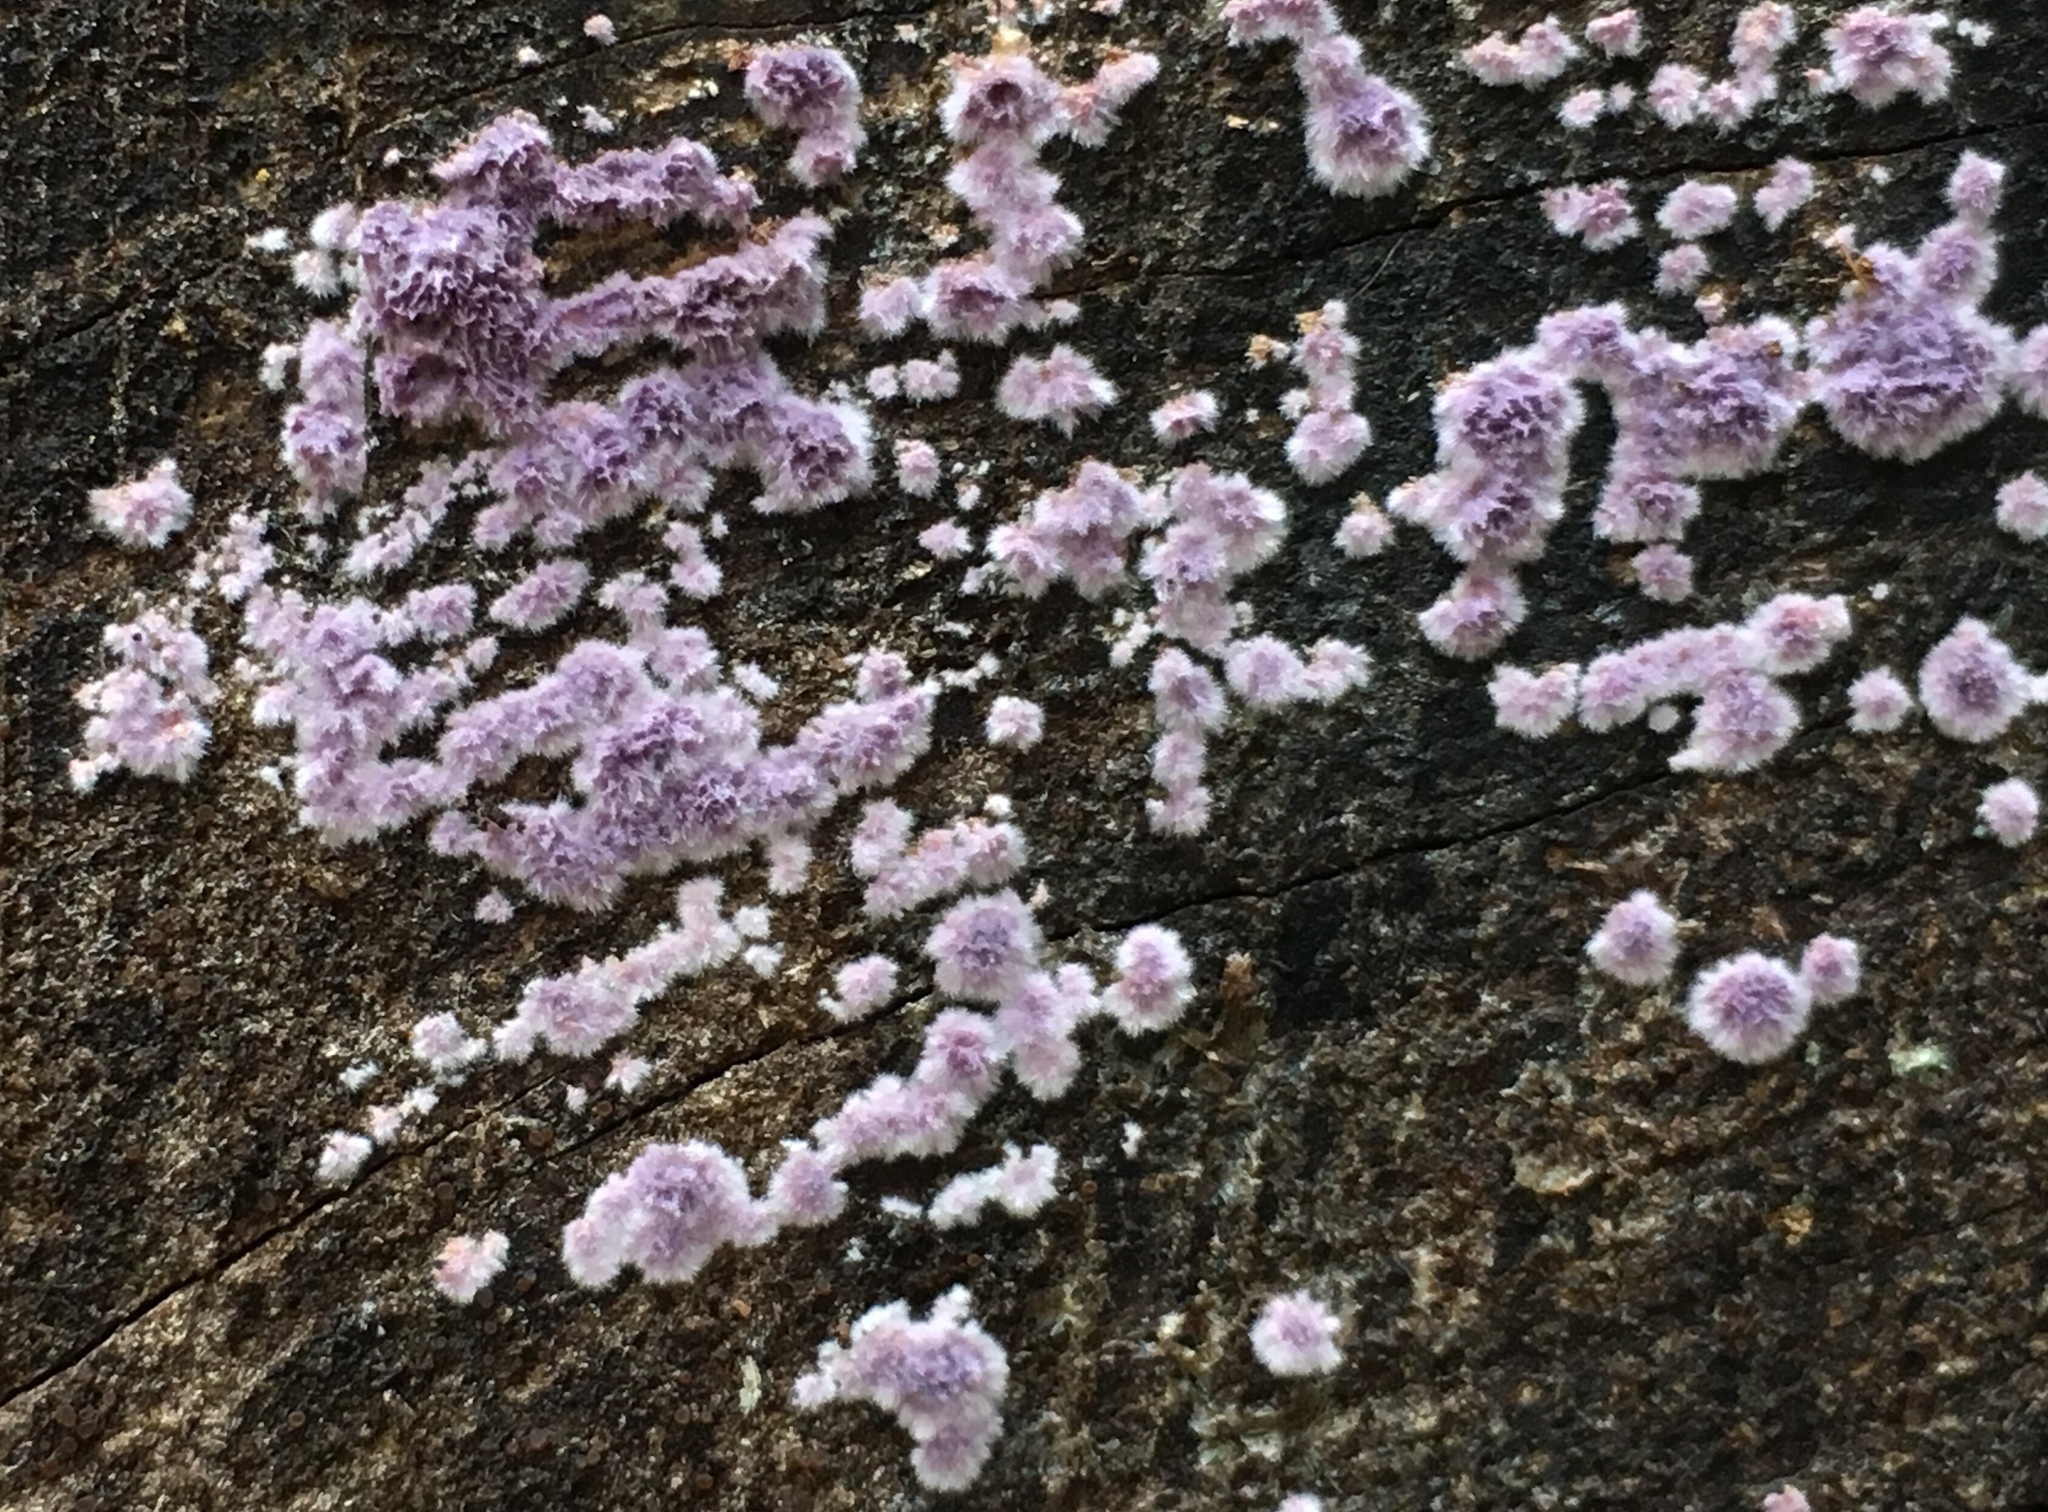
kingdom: Fungi
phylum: Basidiomycota
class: Agaricomycetes
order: Corticiales
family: Punctulariaceae
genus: Punctularia
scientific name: Punctularia atropurpurascens
